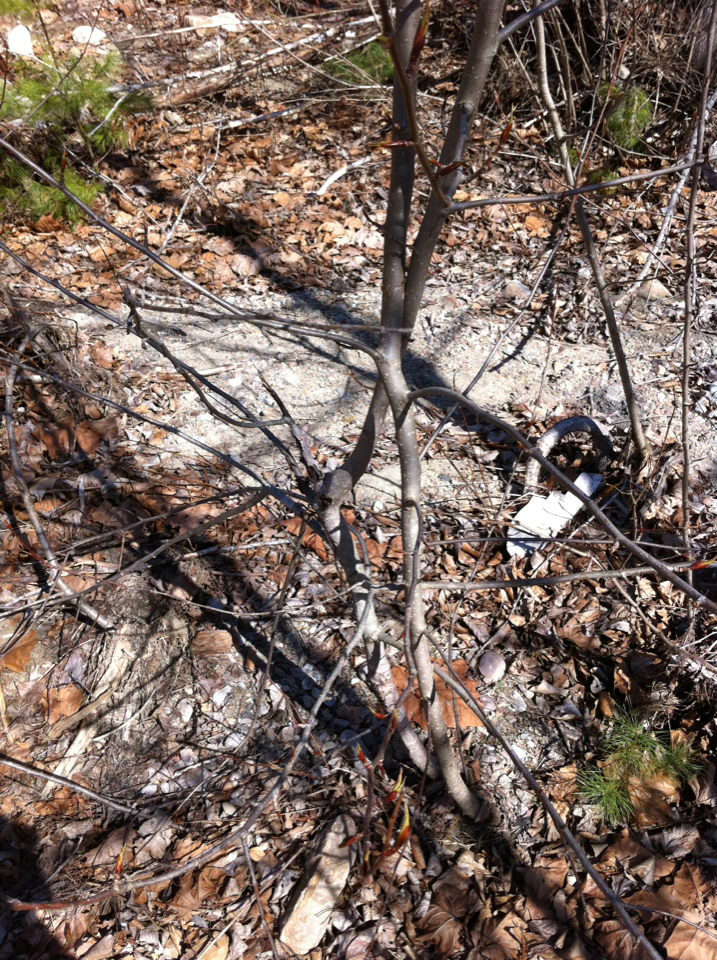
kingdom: Plantae
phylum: Tracheophyta
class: Magnoliopsida
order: Malpighiales
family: Salicaceae
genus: Populus
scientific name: Populus balsamifera
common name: Balsam poplar
